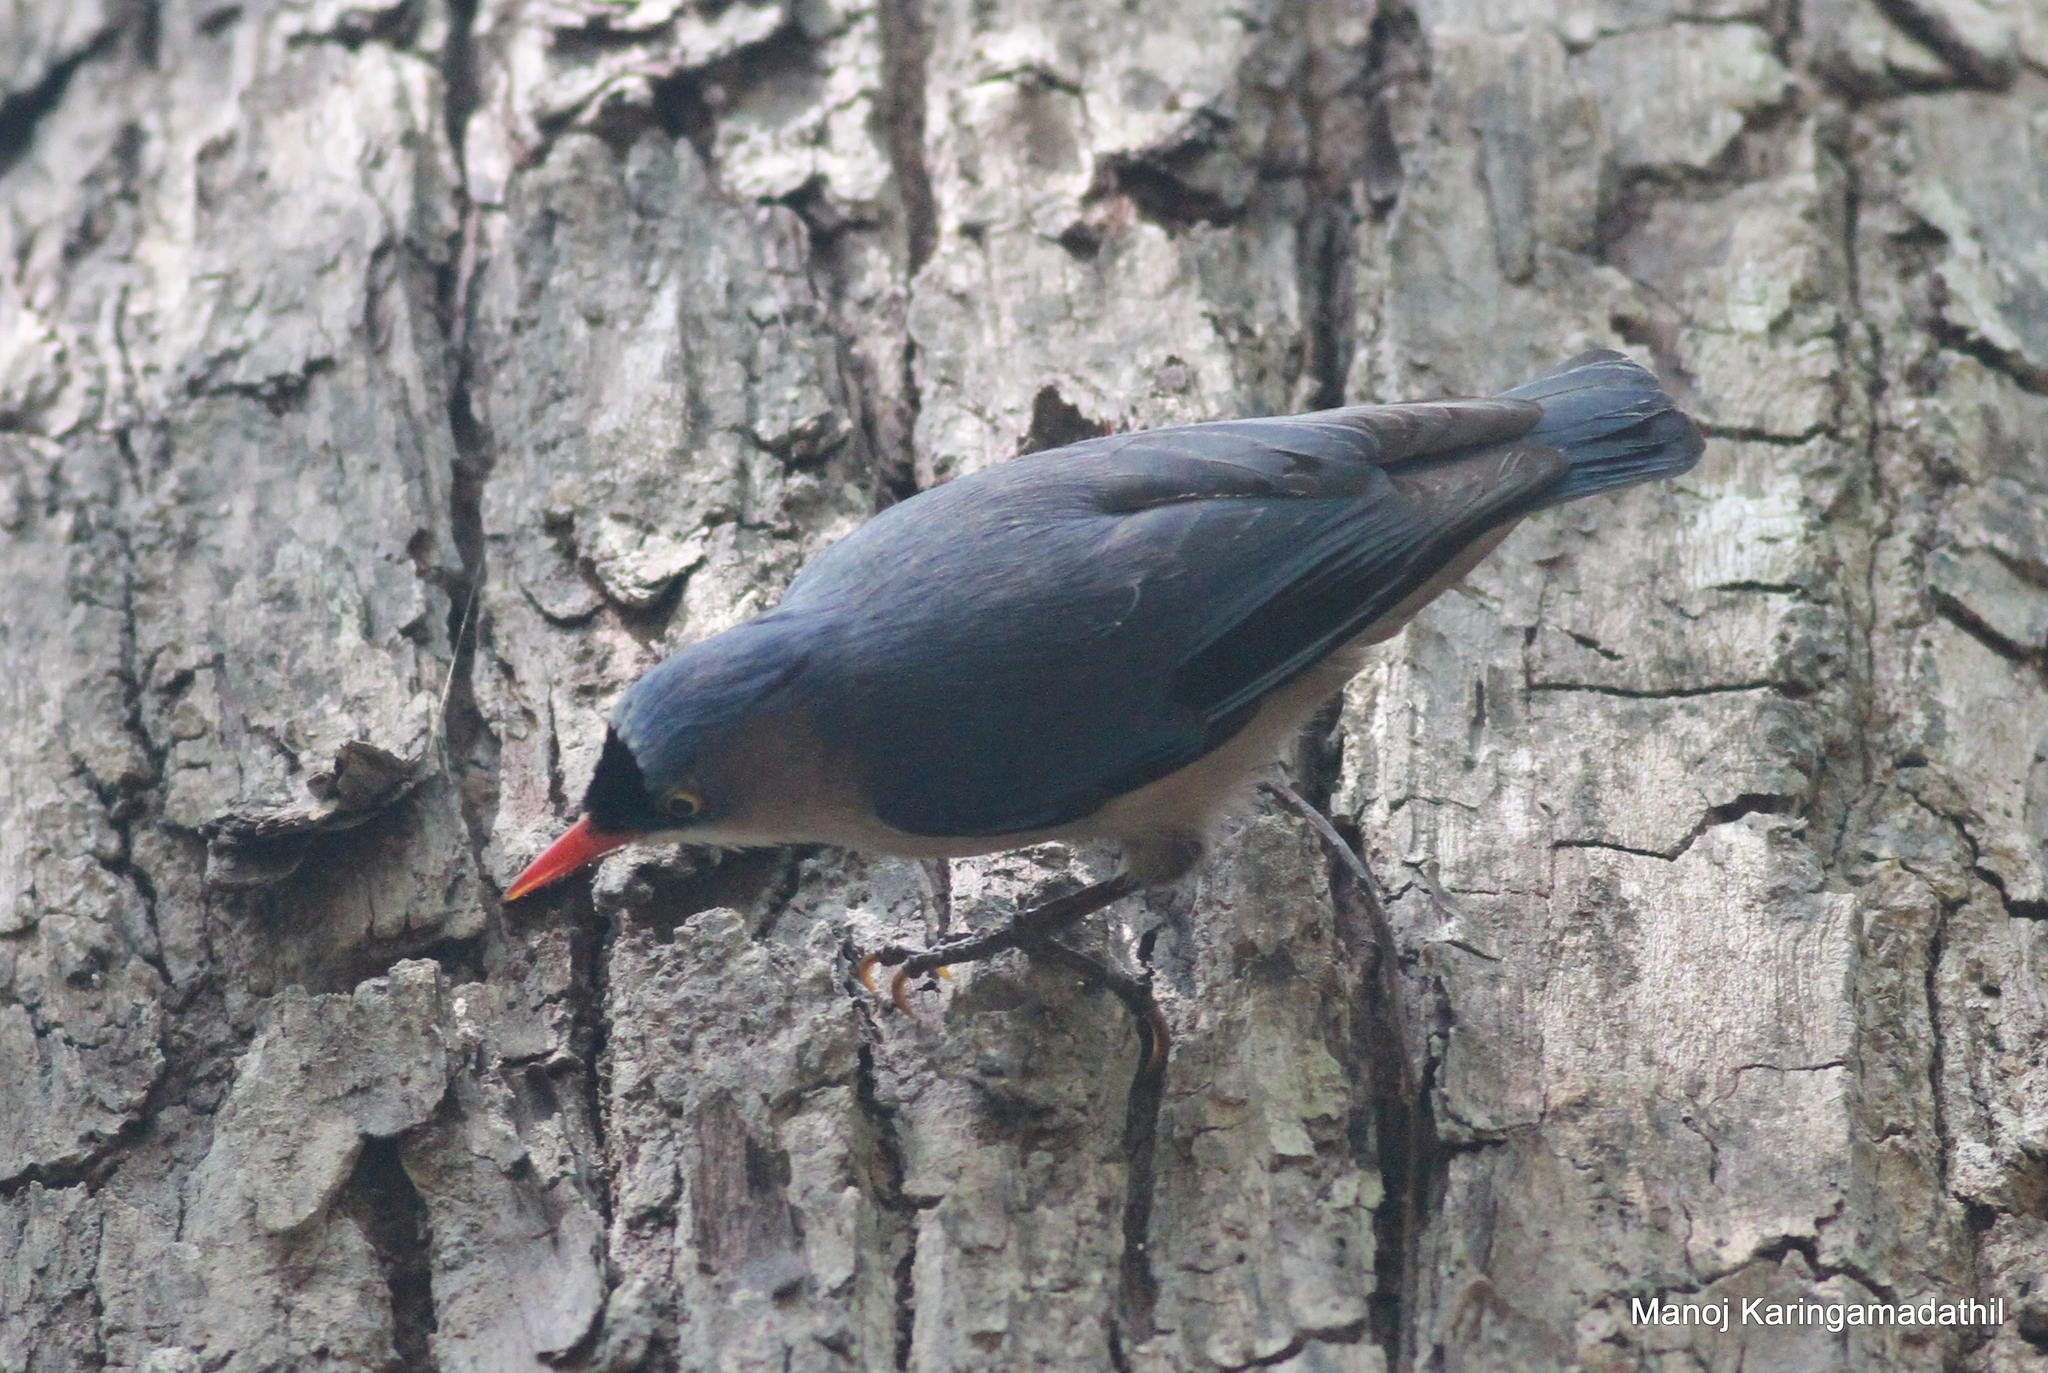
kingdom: Animalia
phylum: Chordata
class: Aves
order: Passeriformes
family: Sittidae
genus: Sitta
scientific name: Sitta frontalis
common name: Velvet-fronted nuthatch
